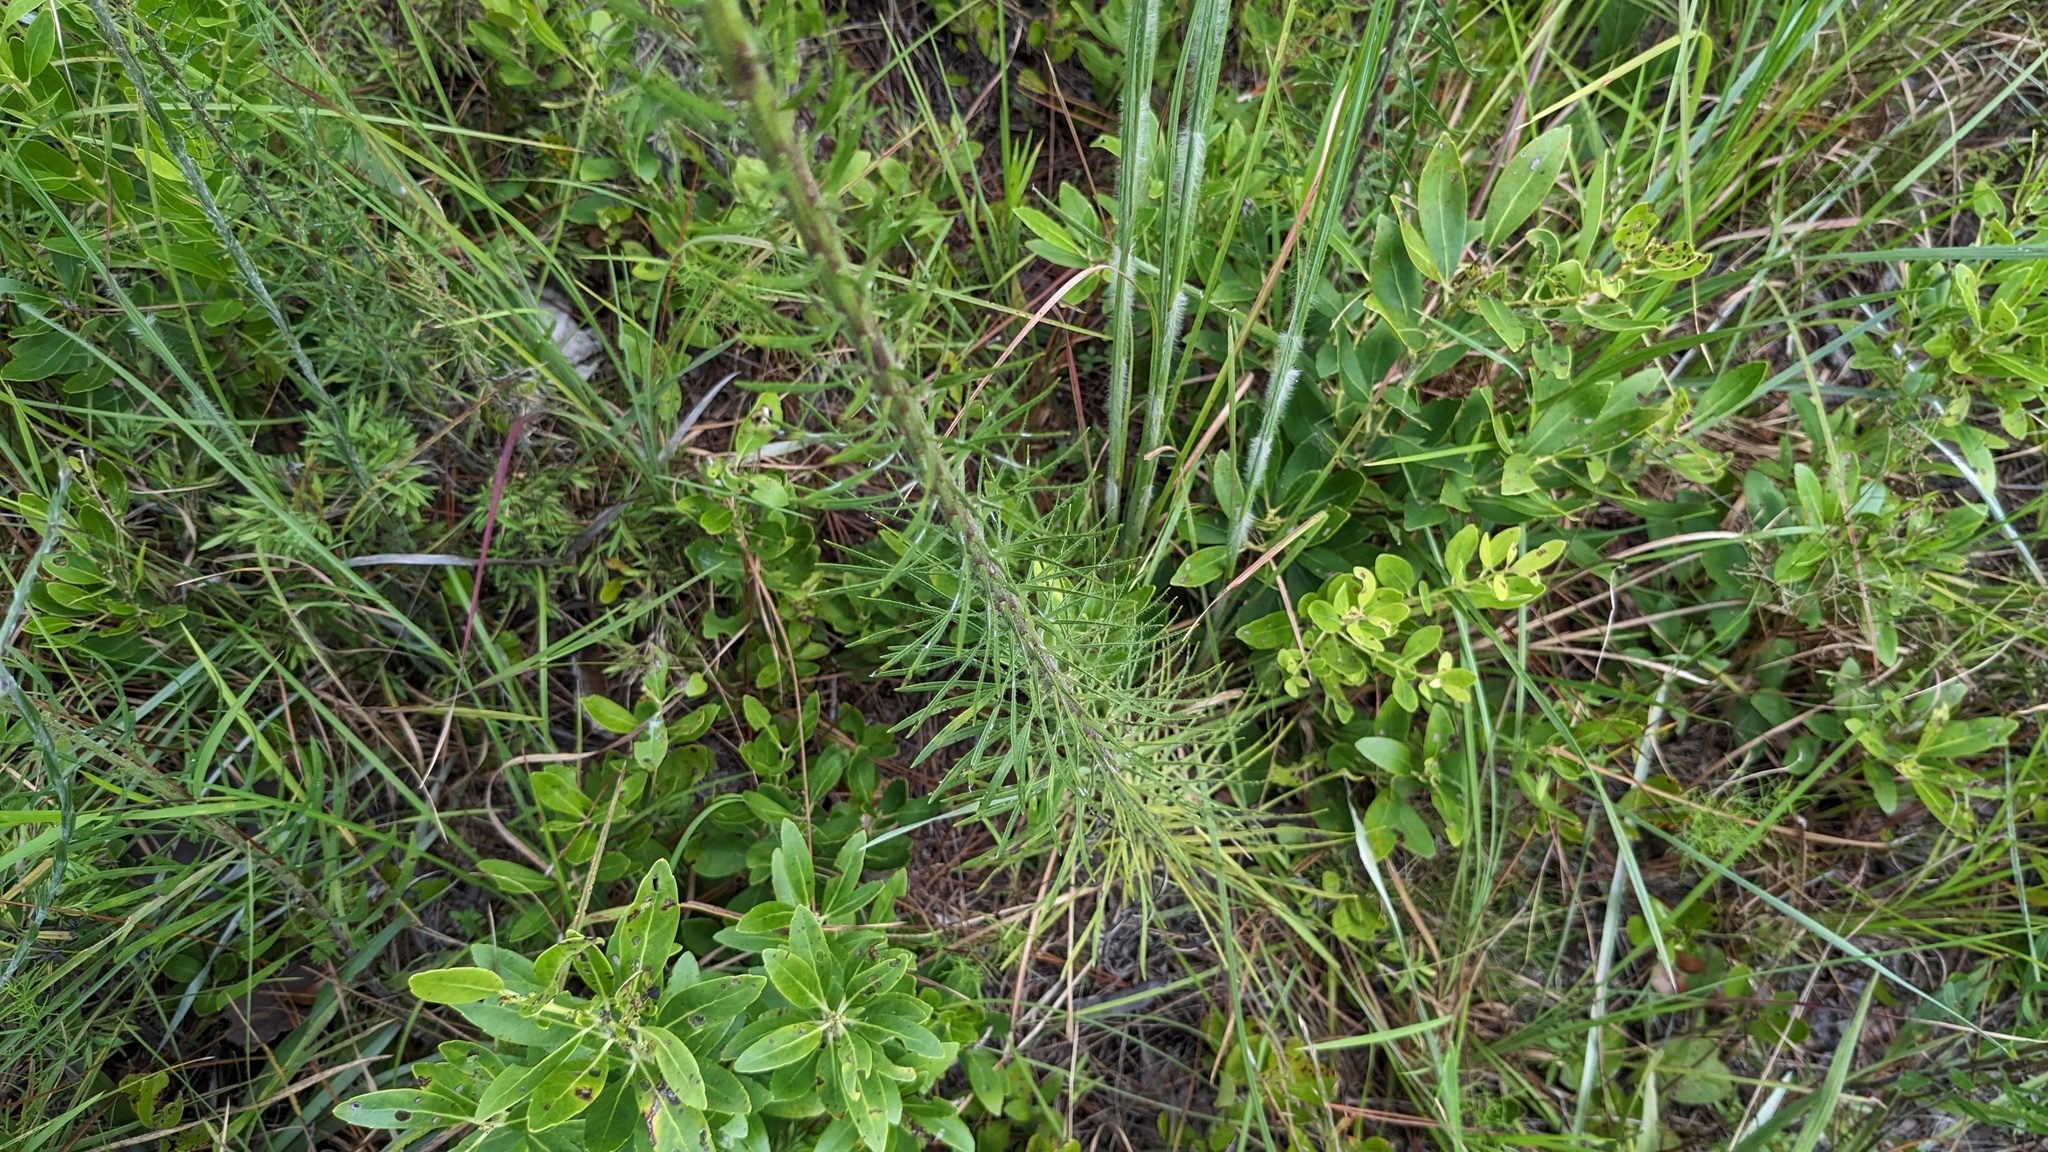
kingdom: Plantae
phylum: Tracheophyta
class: Magnoliopsida
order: Asterales
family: Asteraceae
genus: Liatris
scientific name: Liatris gracilis
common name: Slender gayfeather
